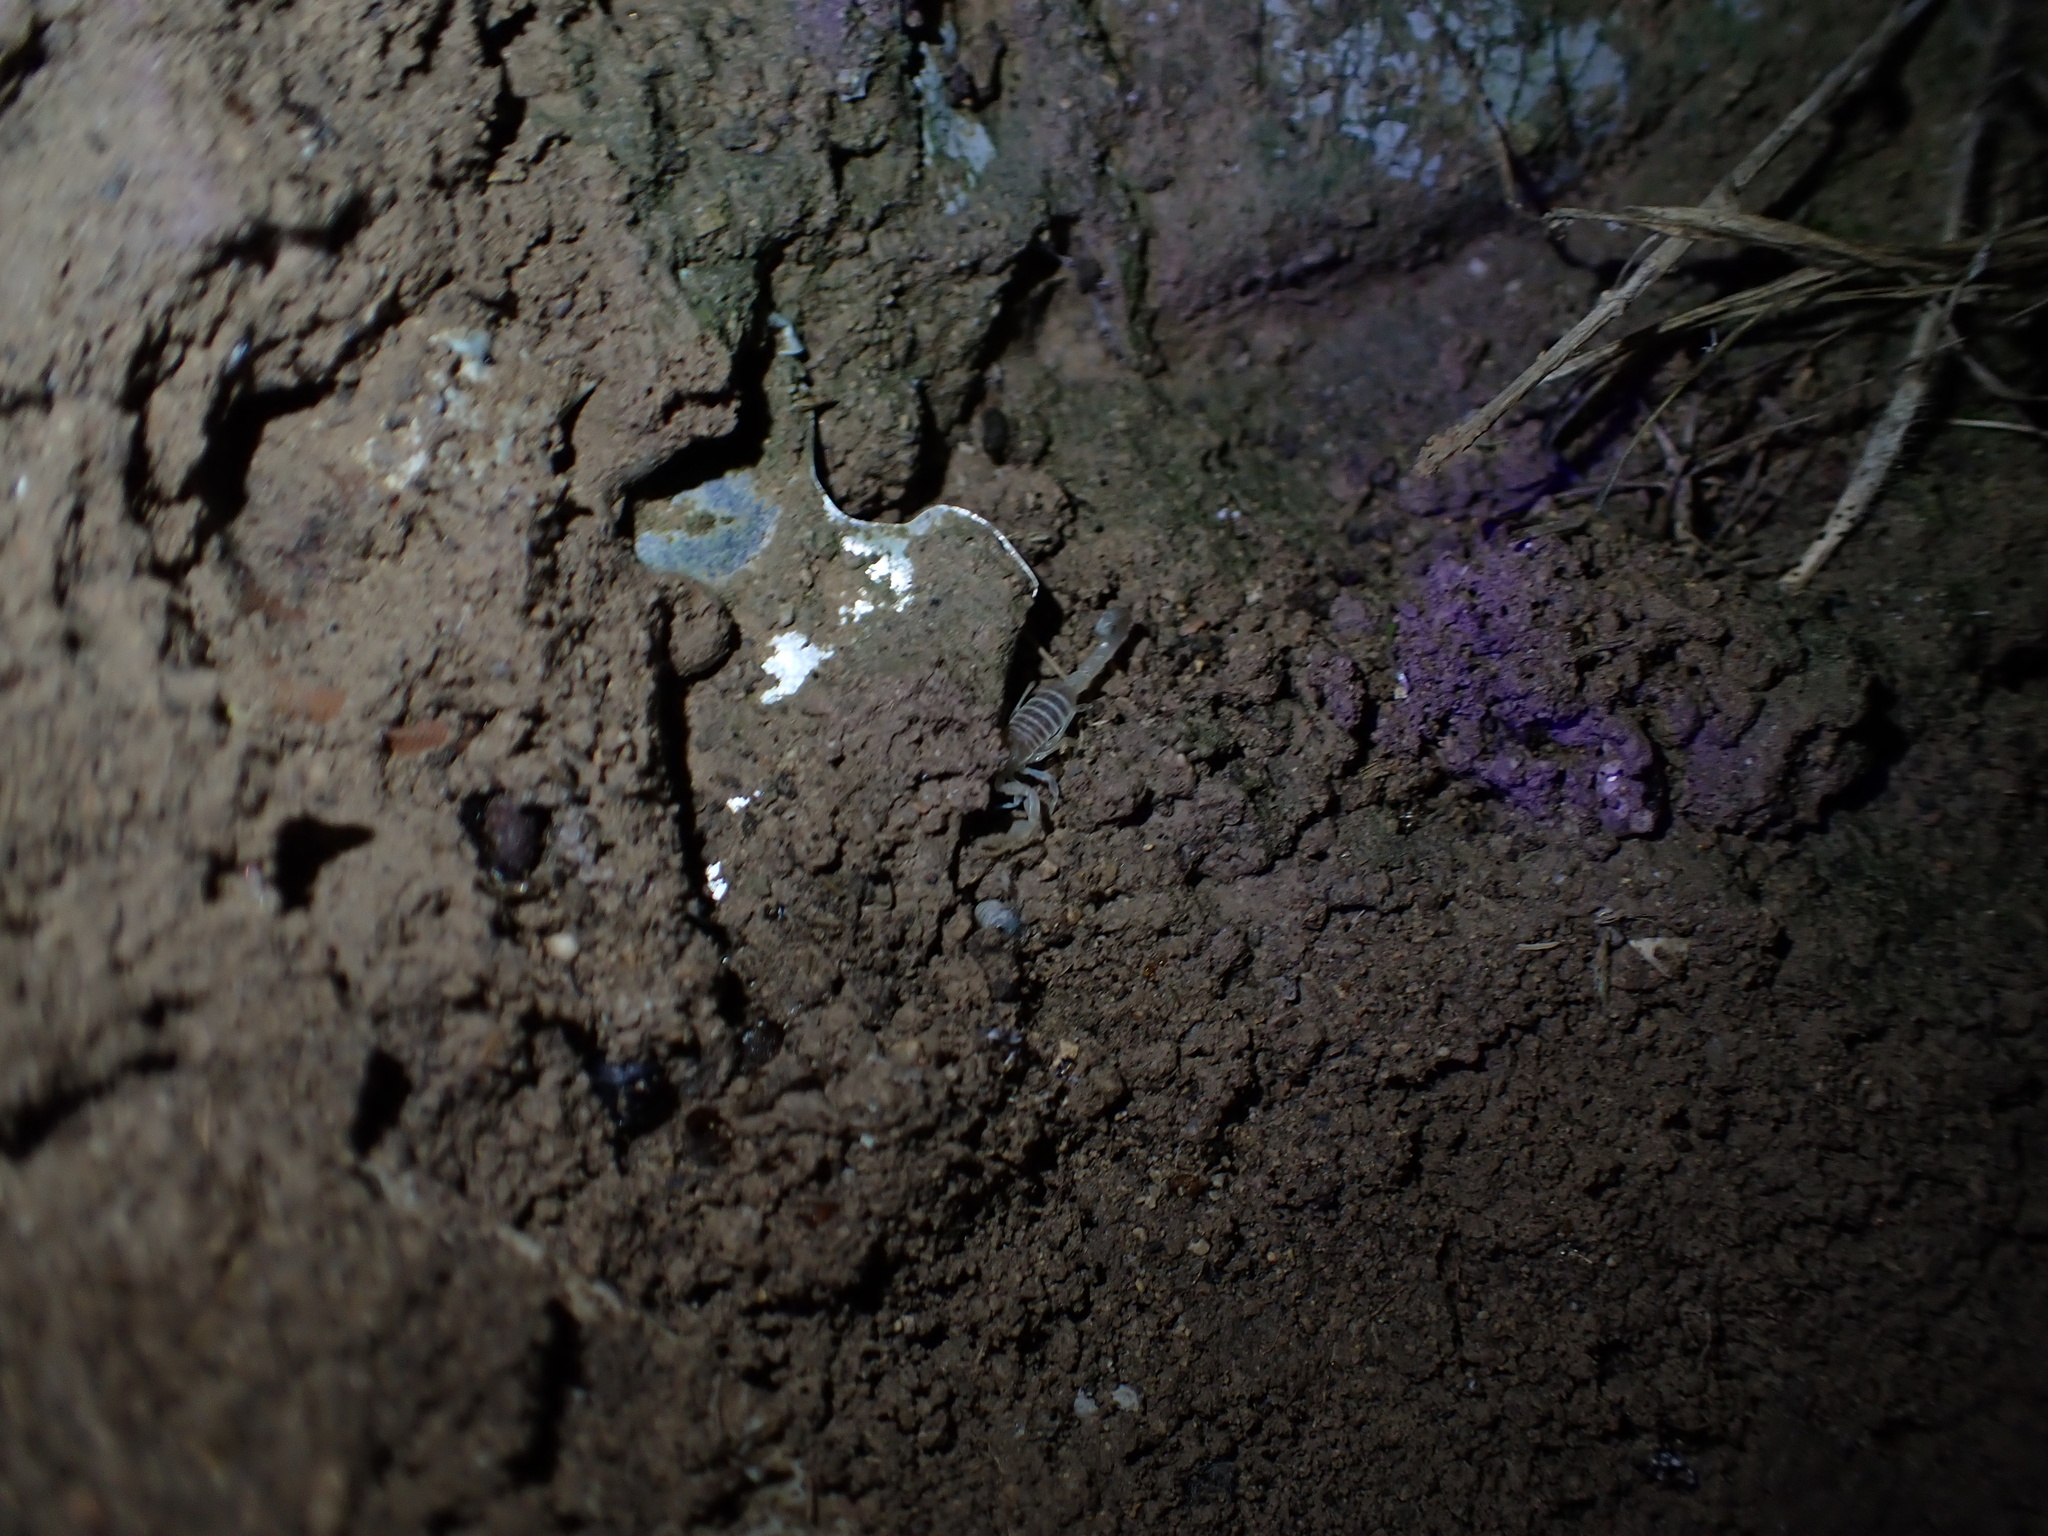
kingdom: Animalia
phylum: Arthropoda
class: Arachnida
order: Scorpiones
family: Buthidae
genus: Razianus
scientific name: Razianus zarudnyi
